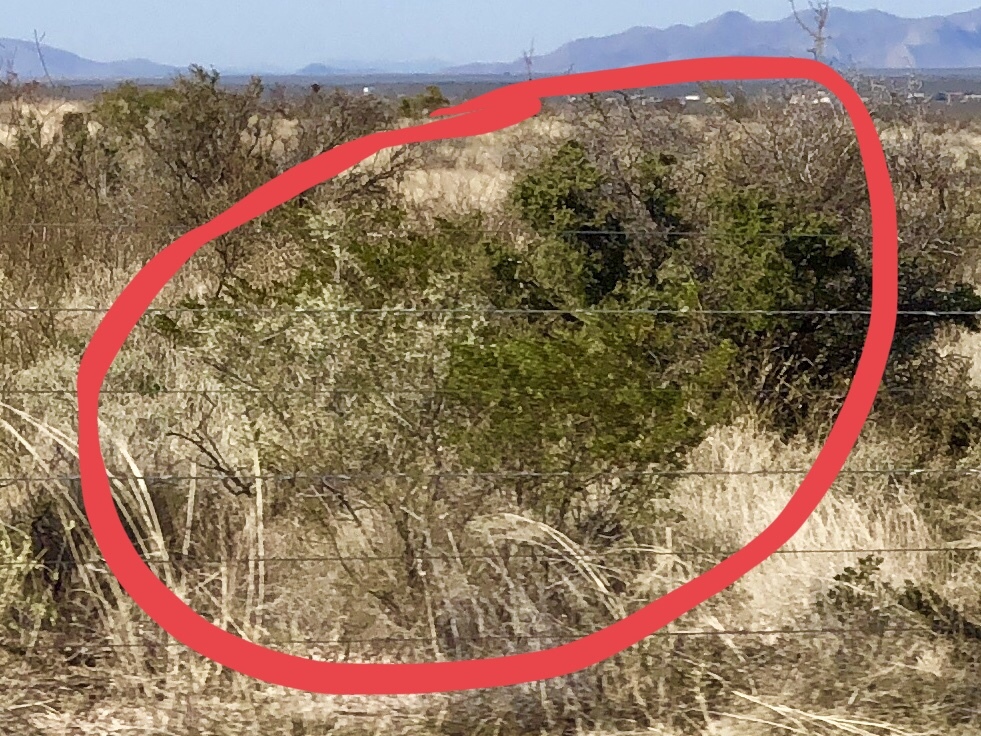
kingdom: Plantae
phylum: Tracheophyta
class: Magnoliopsida
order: Zygophyllales
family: Zygophyllaceae
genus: Larrea
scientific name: Larrea tridentata
